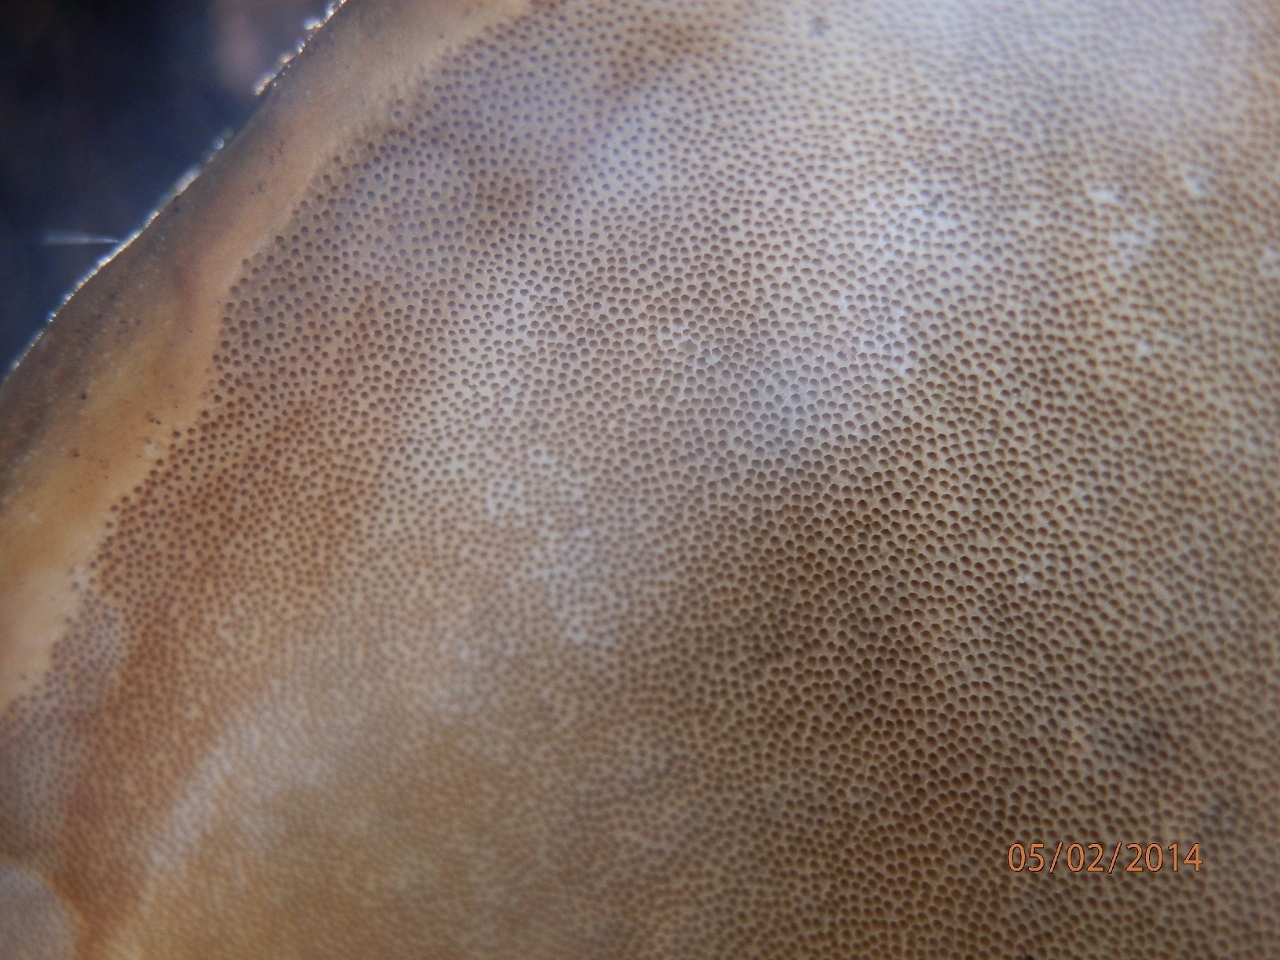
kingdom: Fungi
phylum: Basidiomycota
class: Agaricomycetes
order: Polyporales
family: Fomitopsidaceae
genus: Fomitopsis
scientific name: Fomitopsis schrenkii
